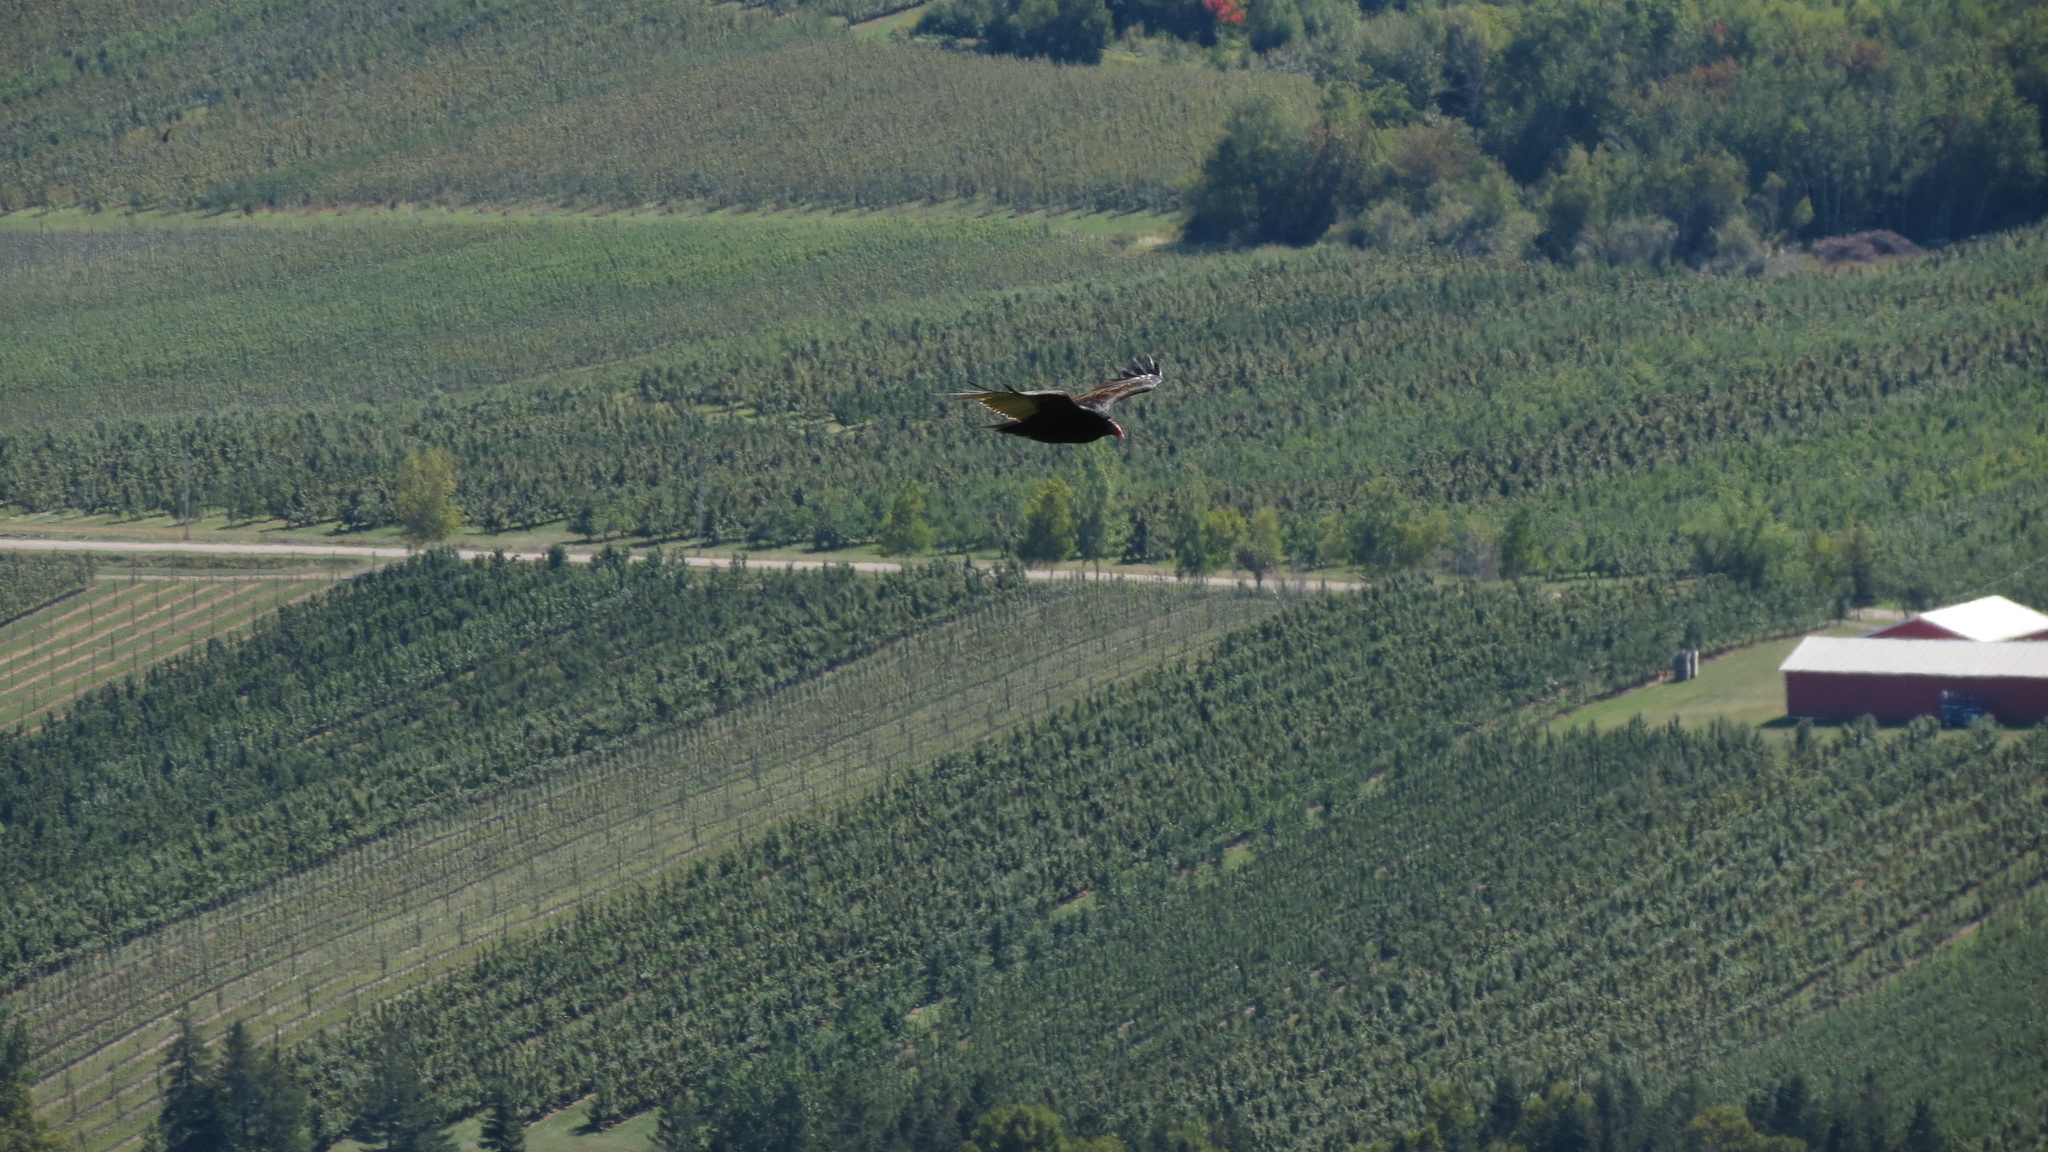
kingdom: Animalia
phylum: Chordata
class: Aves
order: Accipitriformes
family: Cathartidae
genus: Cathartes
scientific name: Cathartes aura
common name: Turkey vulture
